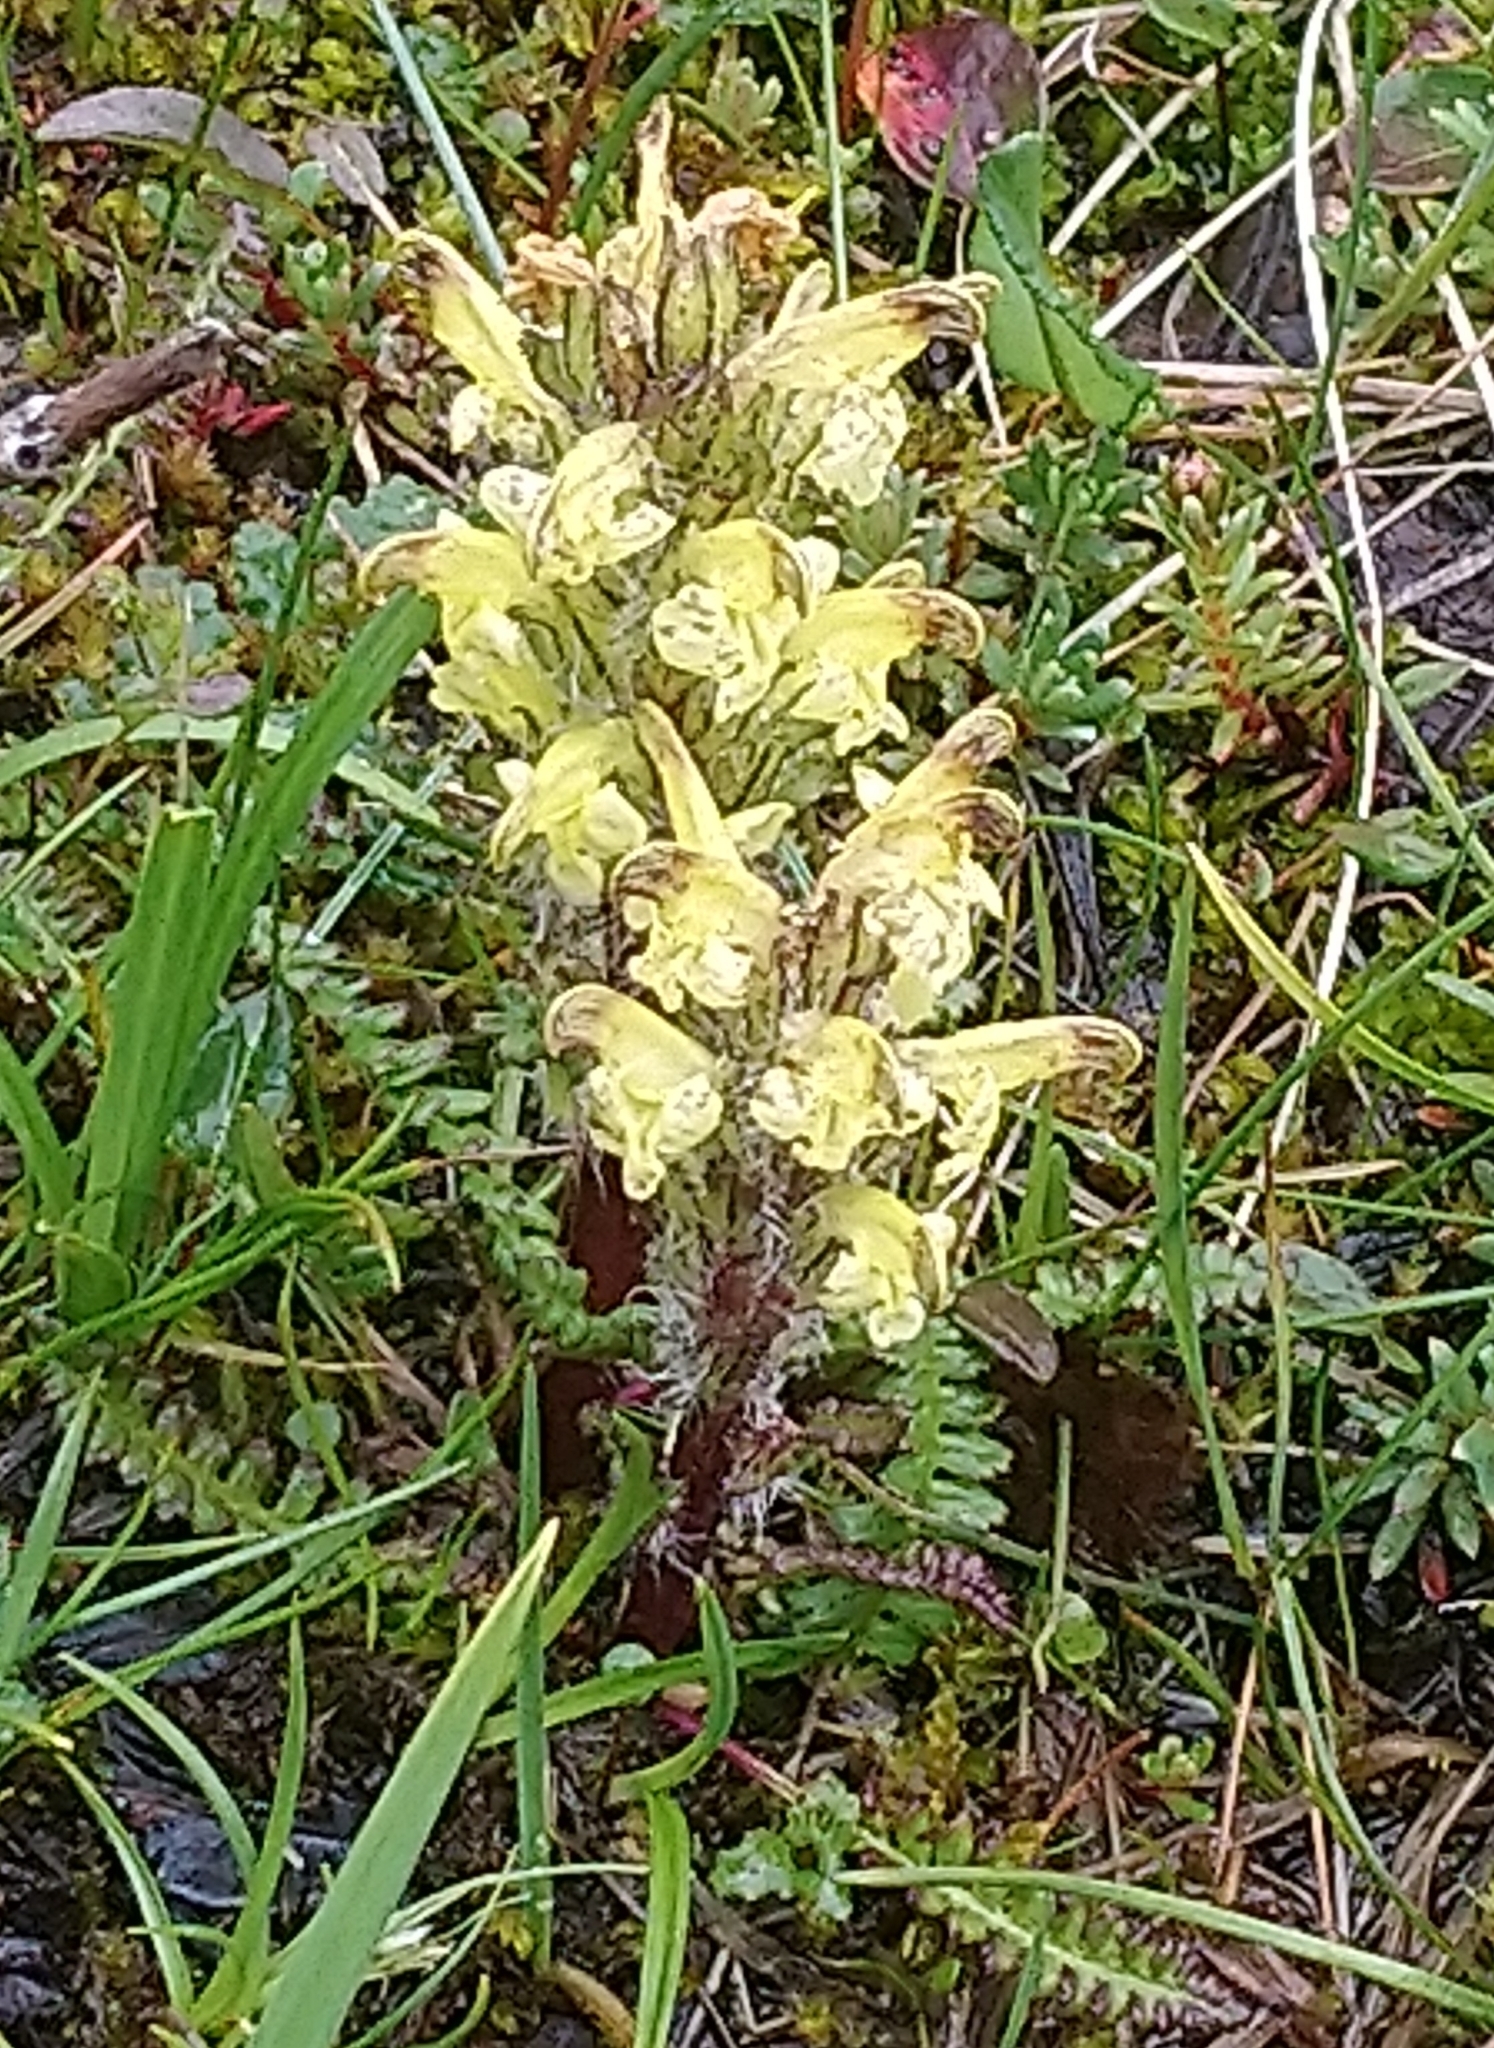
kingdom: Plantae
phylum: Tracheophyta
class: Magnoliopsida
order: Lamiales
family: Orobanchaceae
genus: Pedicularis
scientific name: Pedicularis oederi
